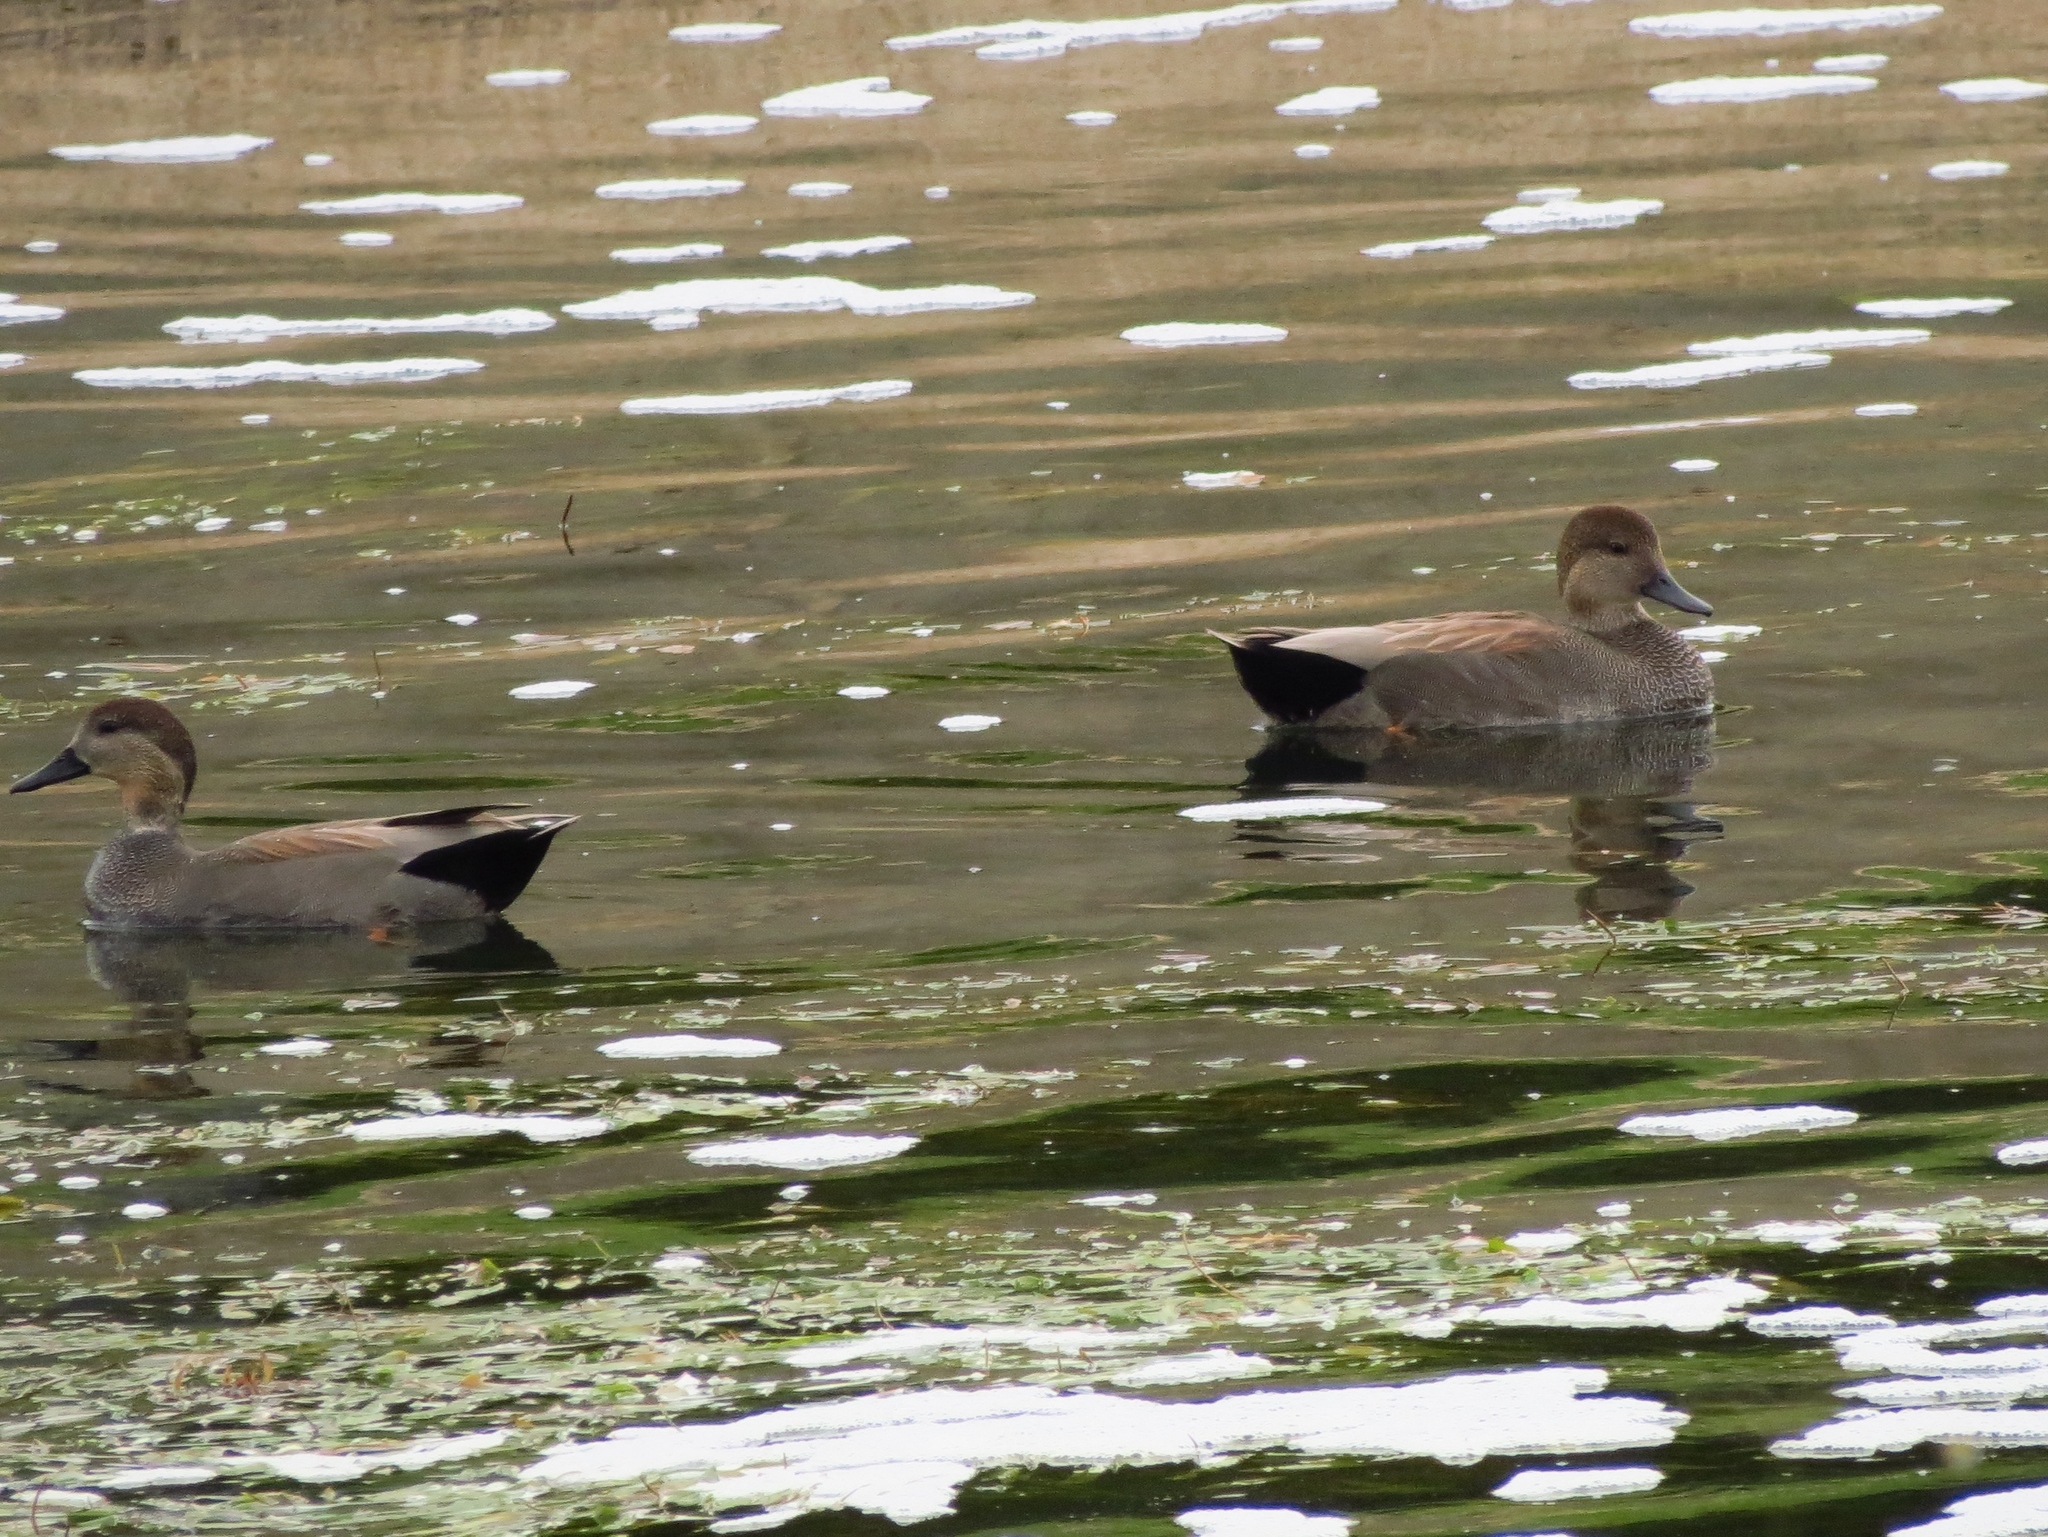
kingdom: Animalia
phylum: Chordata
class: Aves
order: Anseriformes
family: Anatidae
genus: Mareca
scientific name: Mareca strepera
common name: Gadwall
